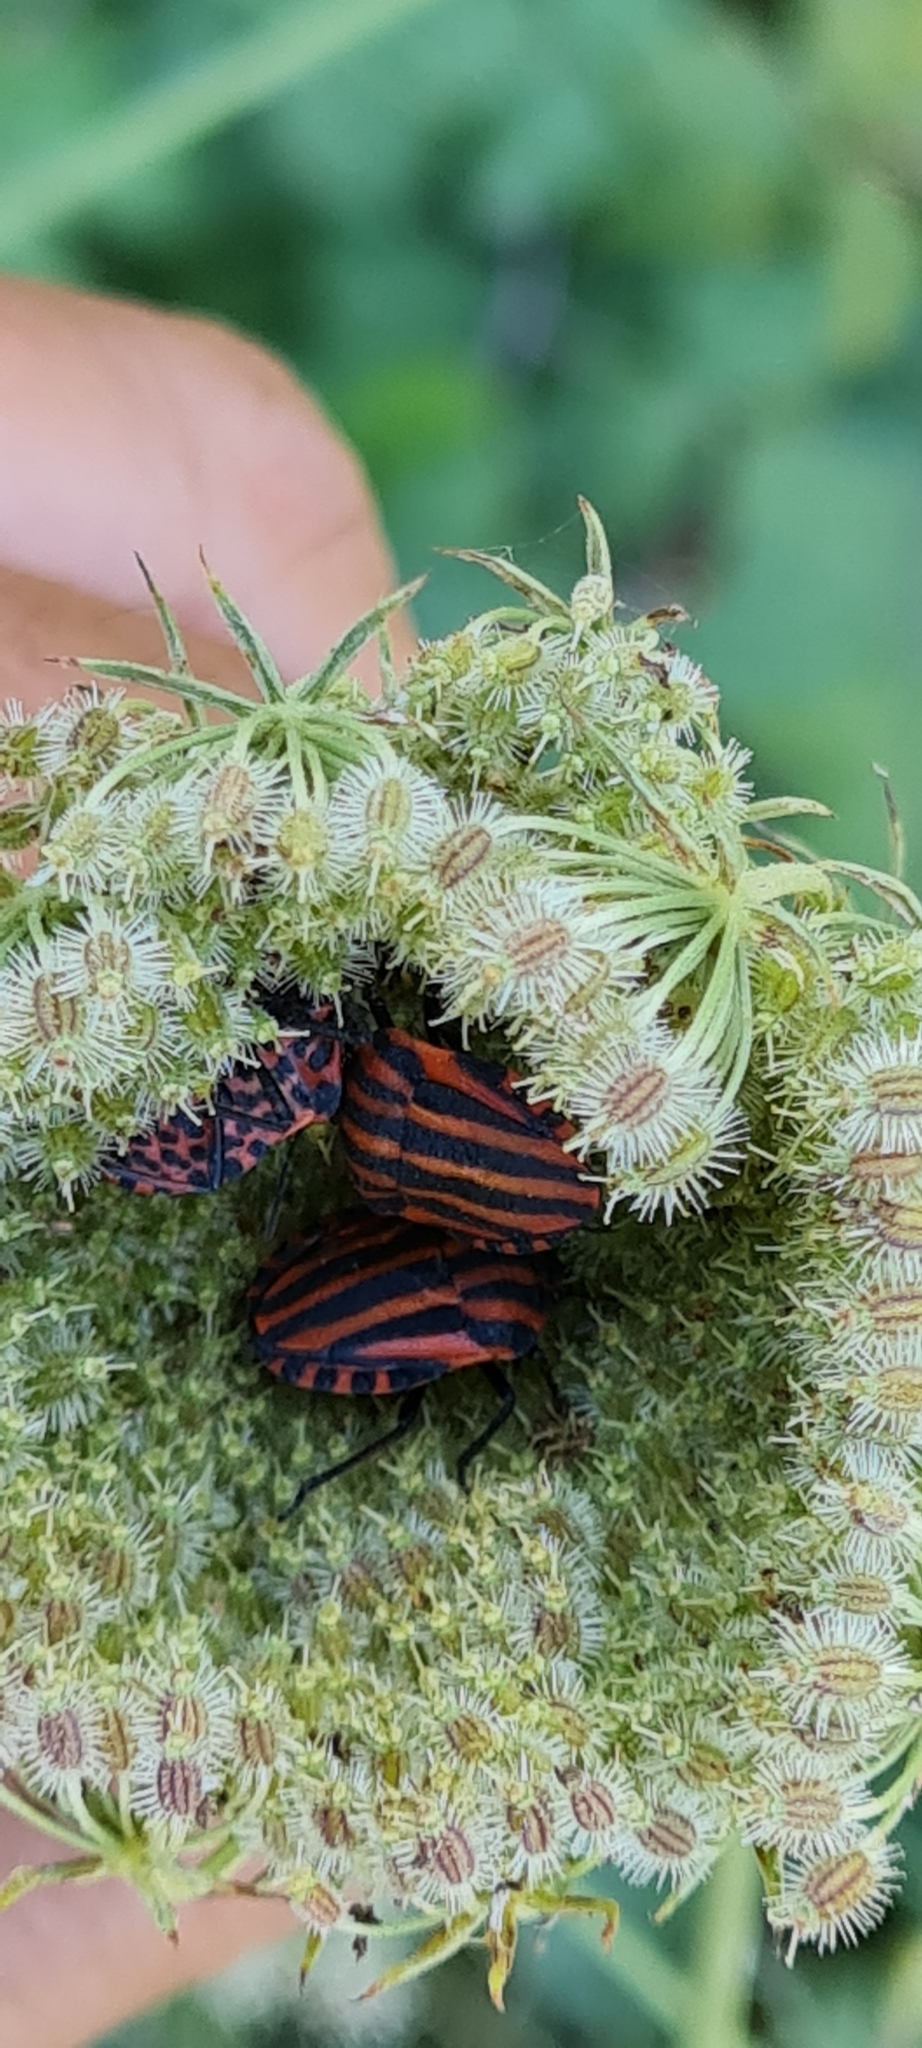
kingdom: Animalia
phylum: Arthropoda
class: Insecta
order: Hemiptera
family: Pentatomidae
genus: Graphosoma
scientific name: Graphosoma italicum
